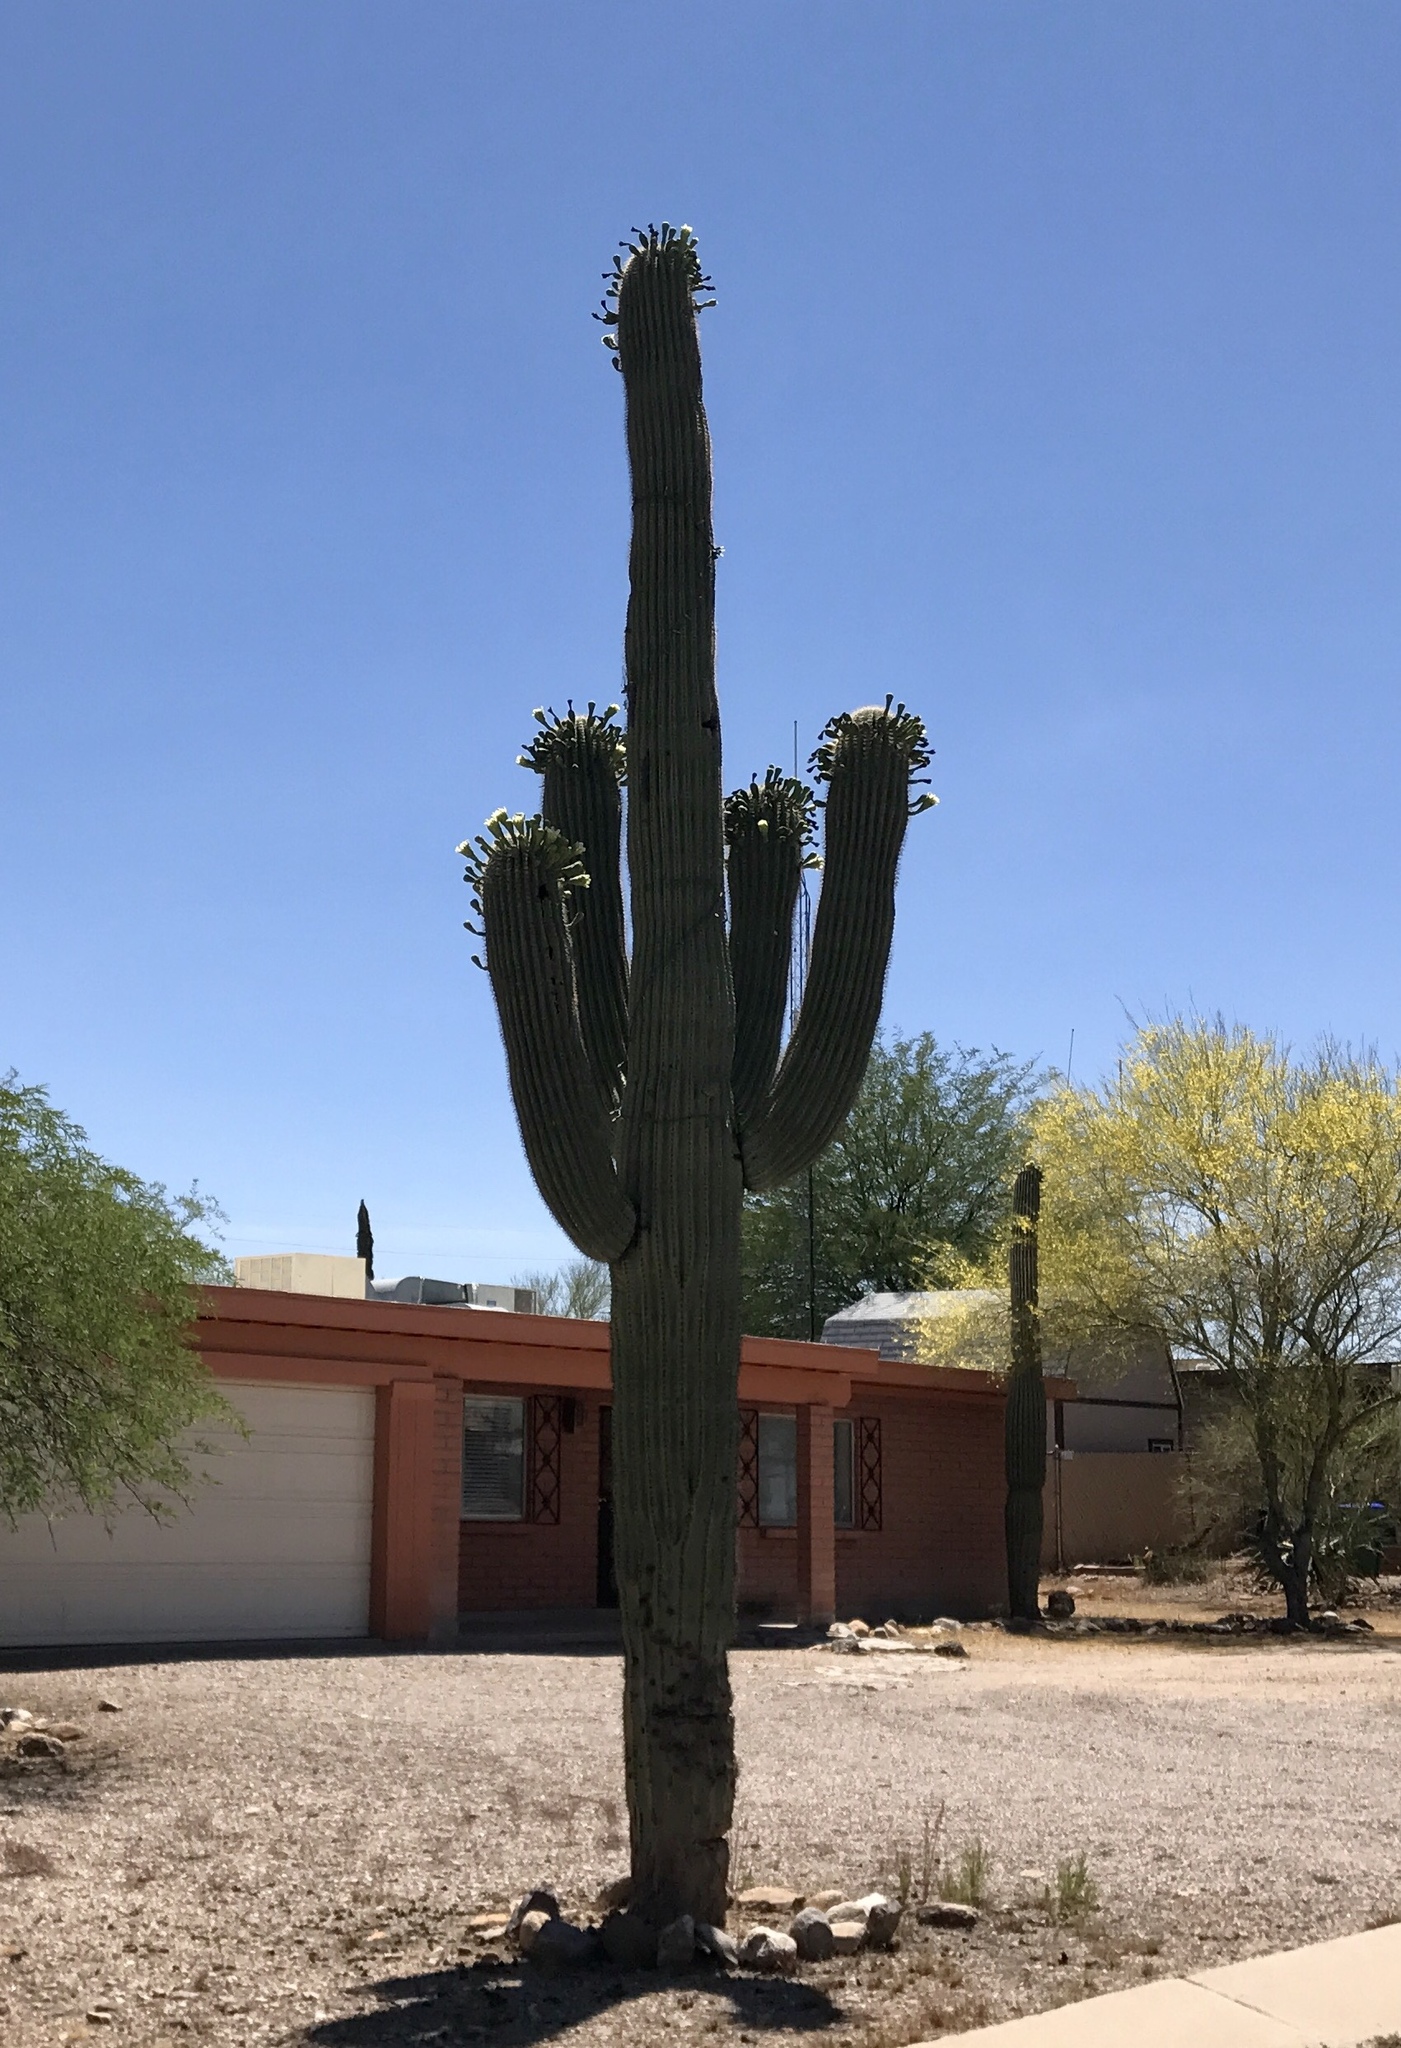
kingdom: Plantae
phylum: Tracheophyta
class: Magnoliopsida
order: Caryophyllales
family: Cactaceae
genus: Carnegiea
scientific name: Carnegiea gigantea
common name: Saguaro
